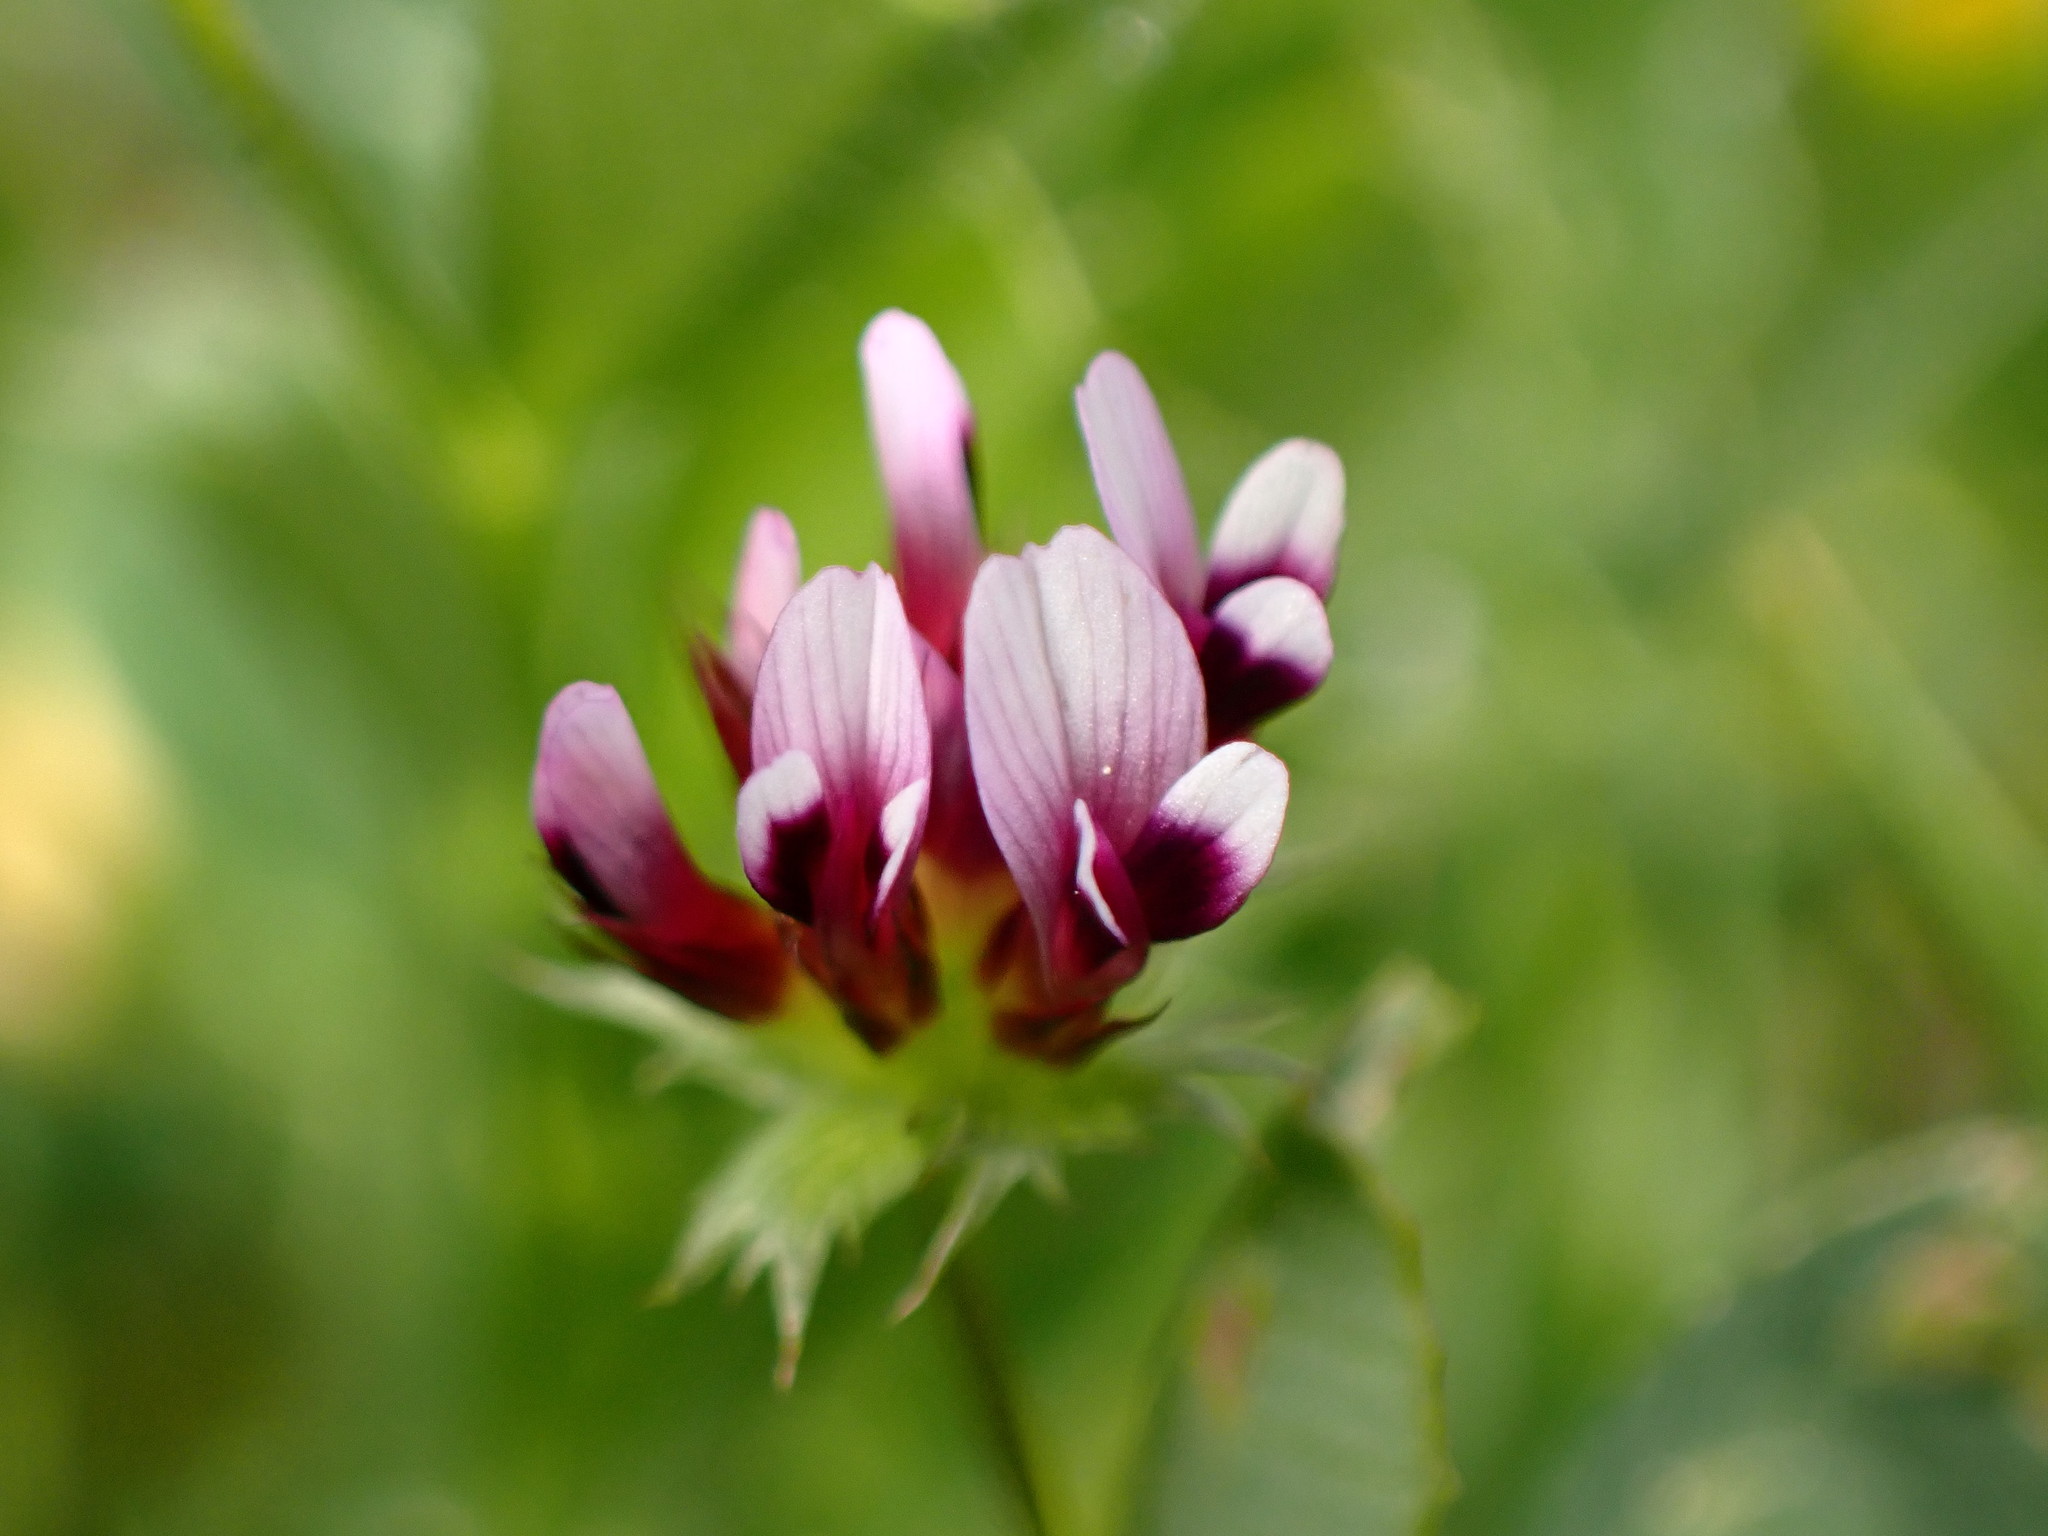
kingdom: Plantae
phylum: Tracheophyta
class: Magnoliopsida
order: Fabales
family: Fabaceae
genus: Trifolium
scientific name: Trifolium variegatum
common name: Whitetip clover
